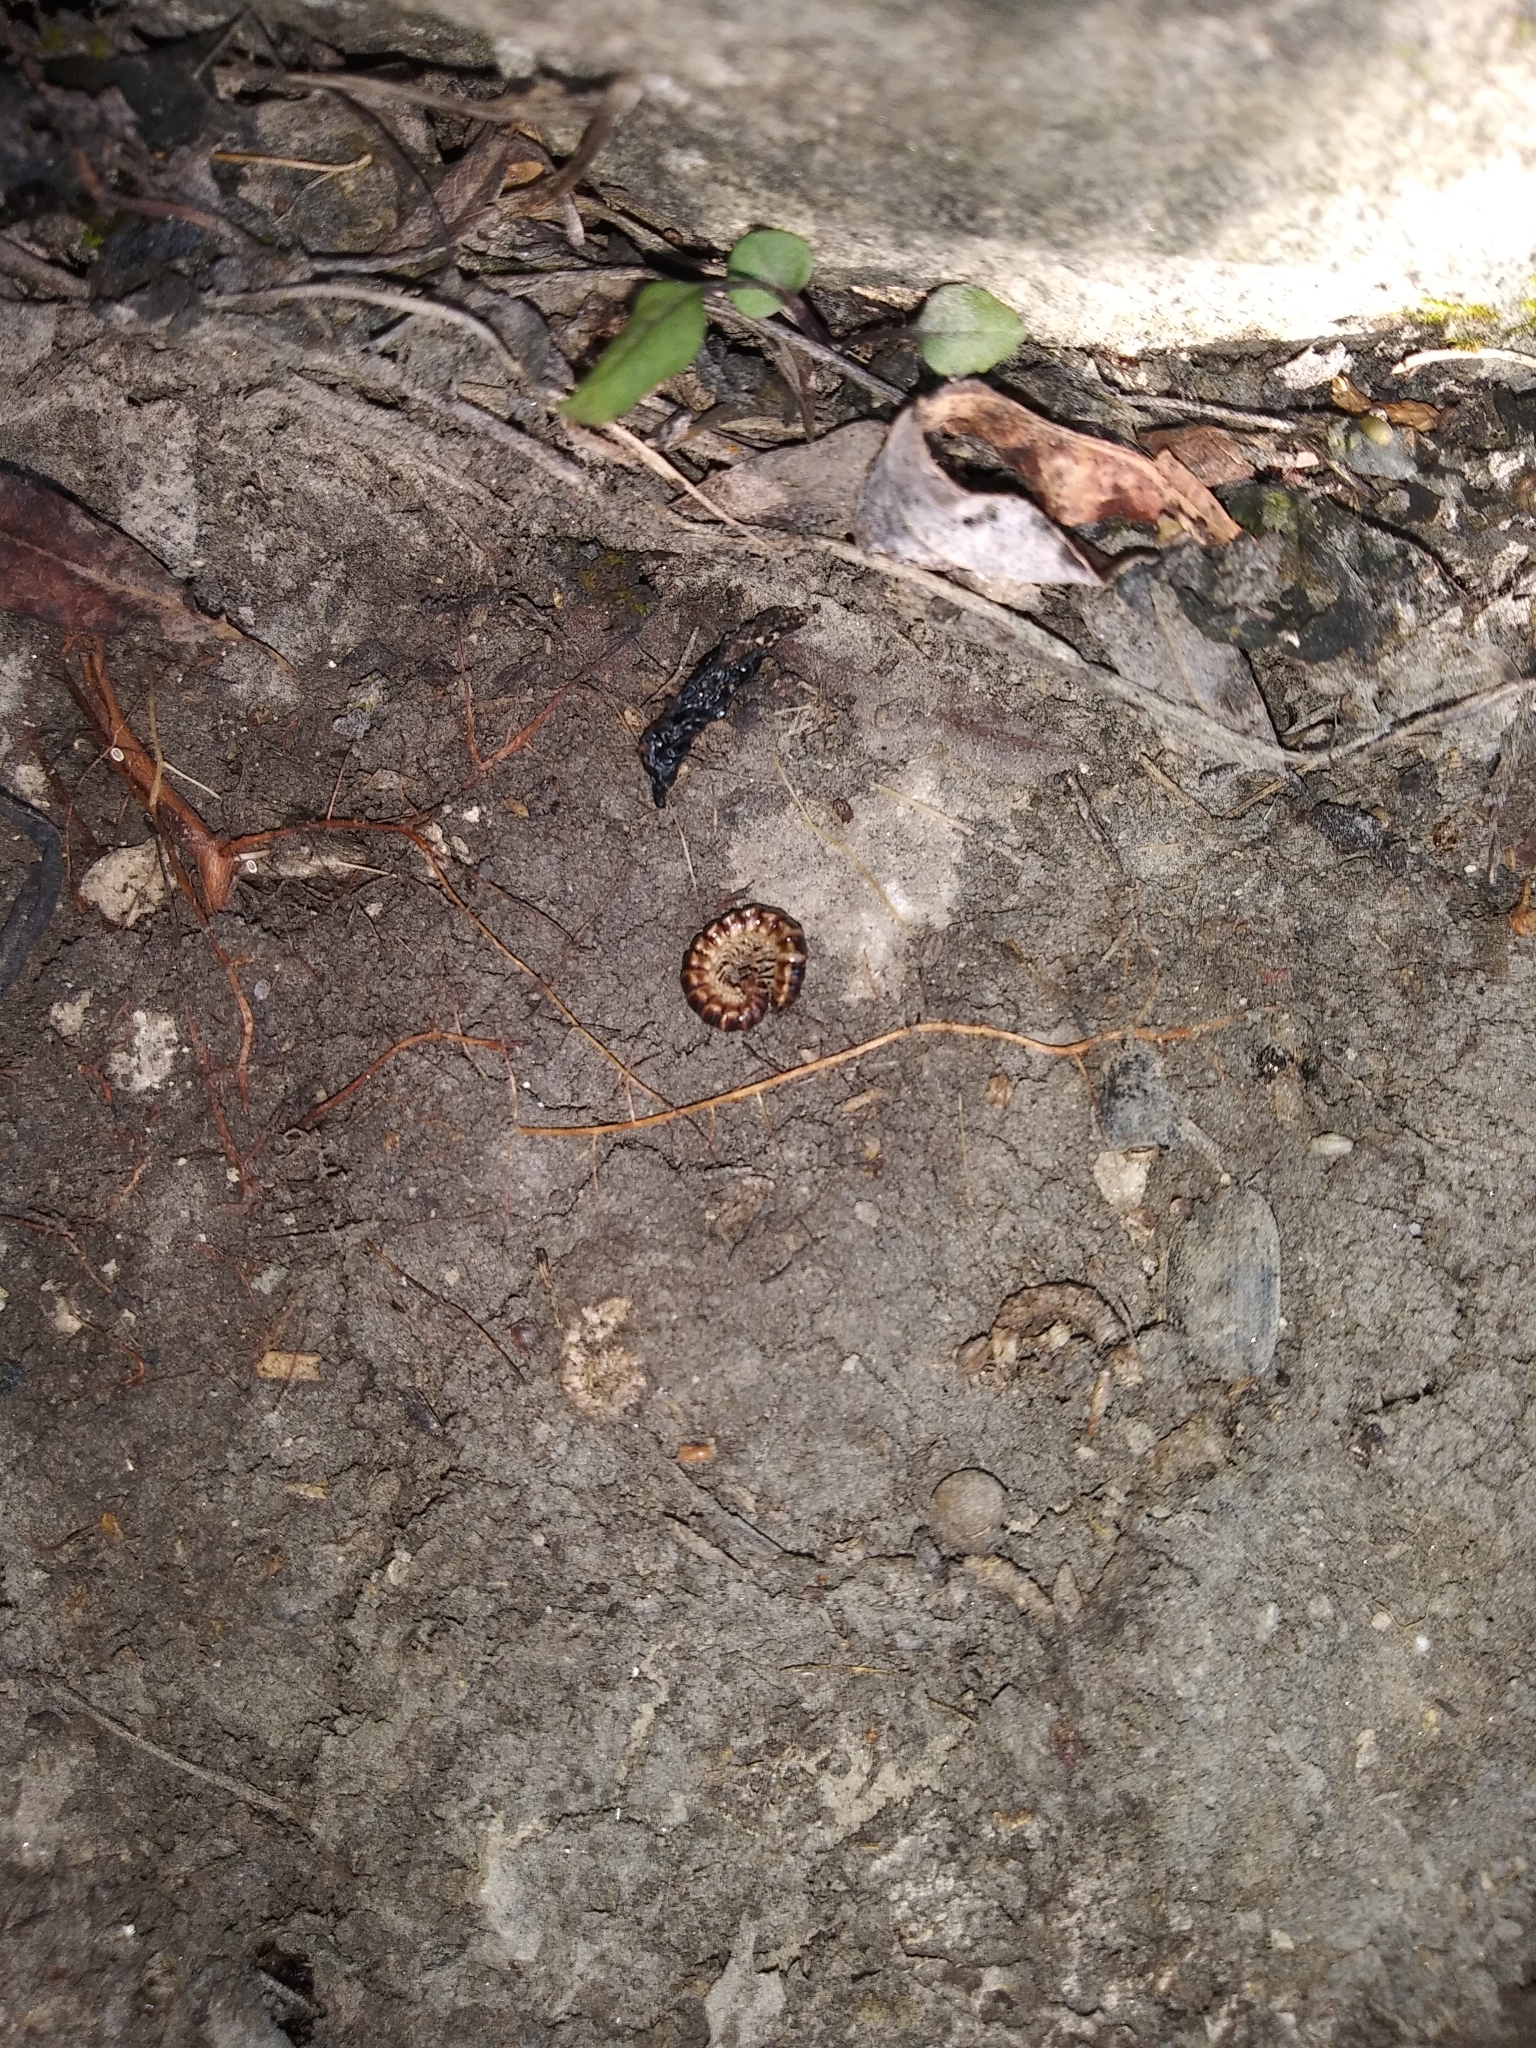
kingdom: Animalia
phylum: Arthropoda
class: Diplopoda
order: Polydesmida
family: Paradoxosomatidae
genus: Oxidus
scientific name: Oxidus gracilis
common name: Greenhouse millipede
